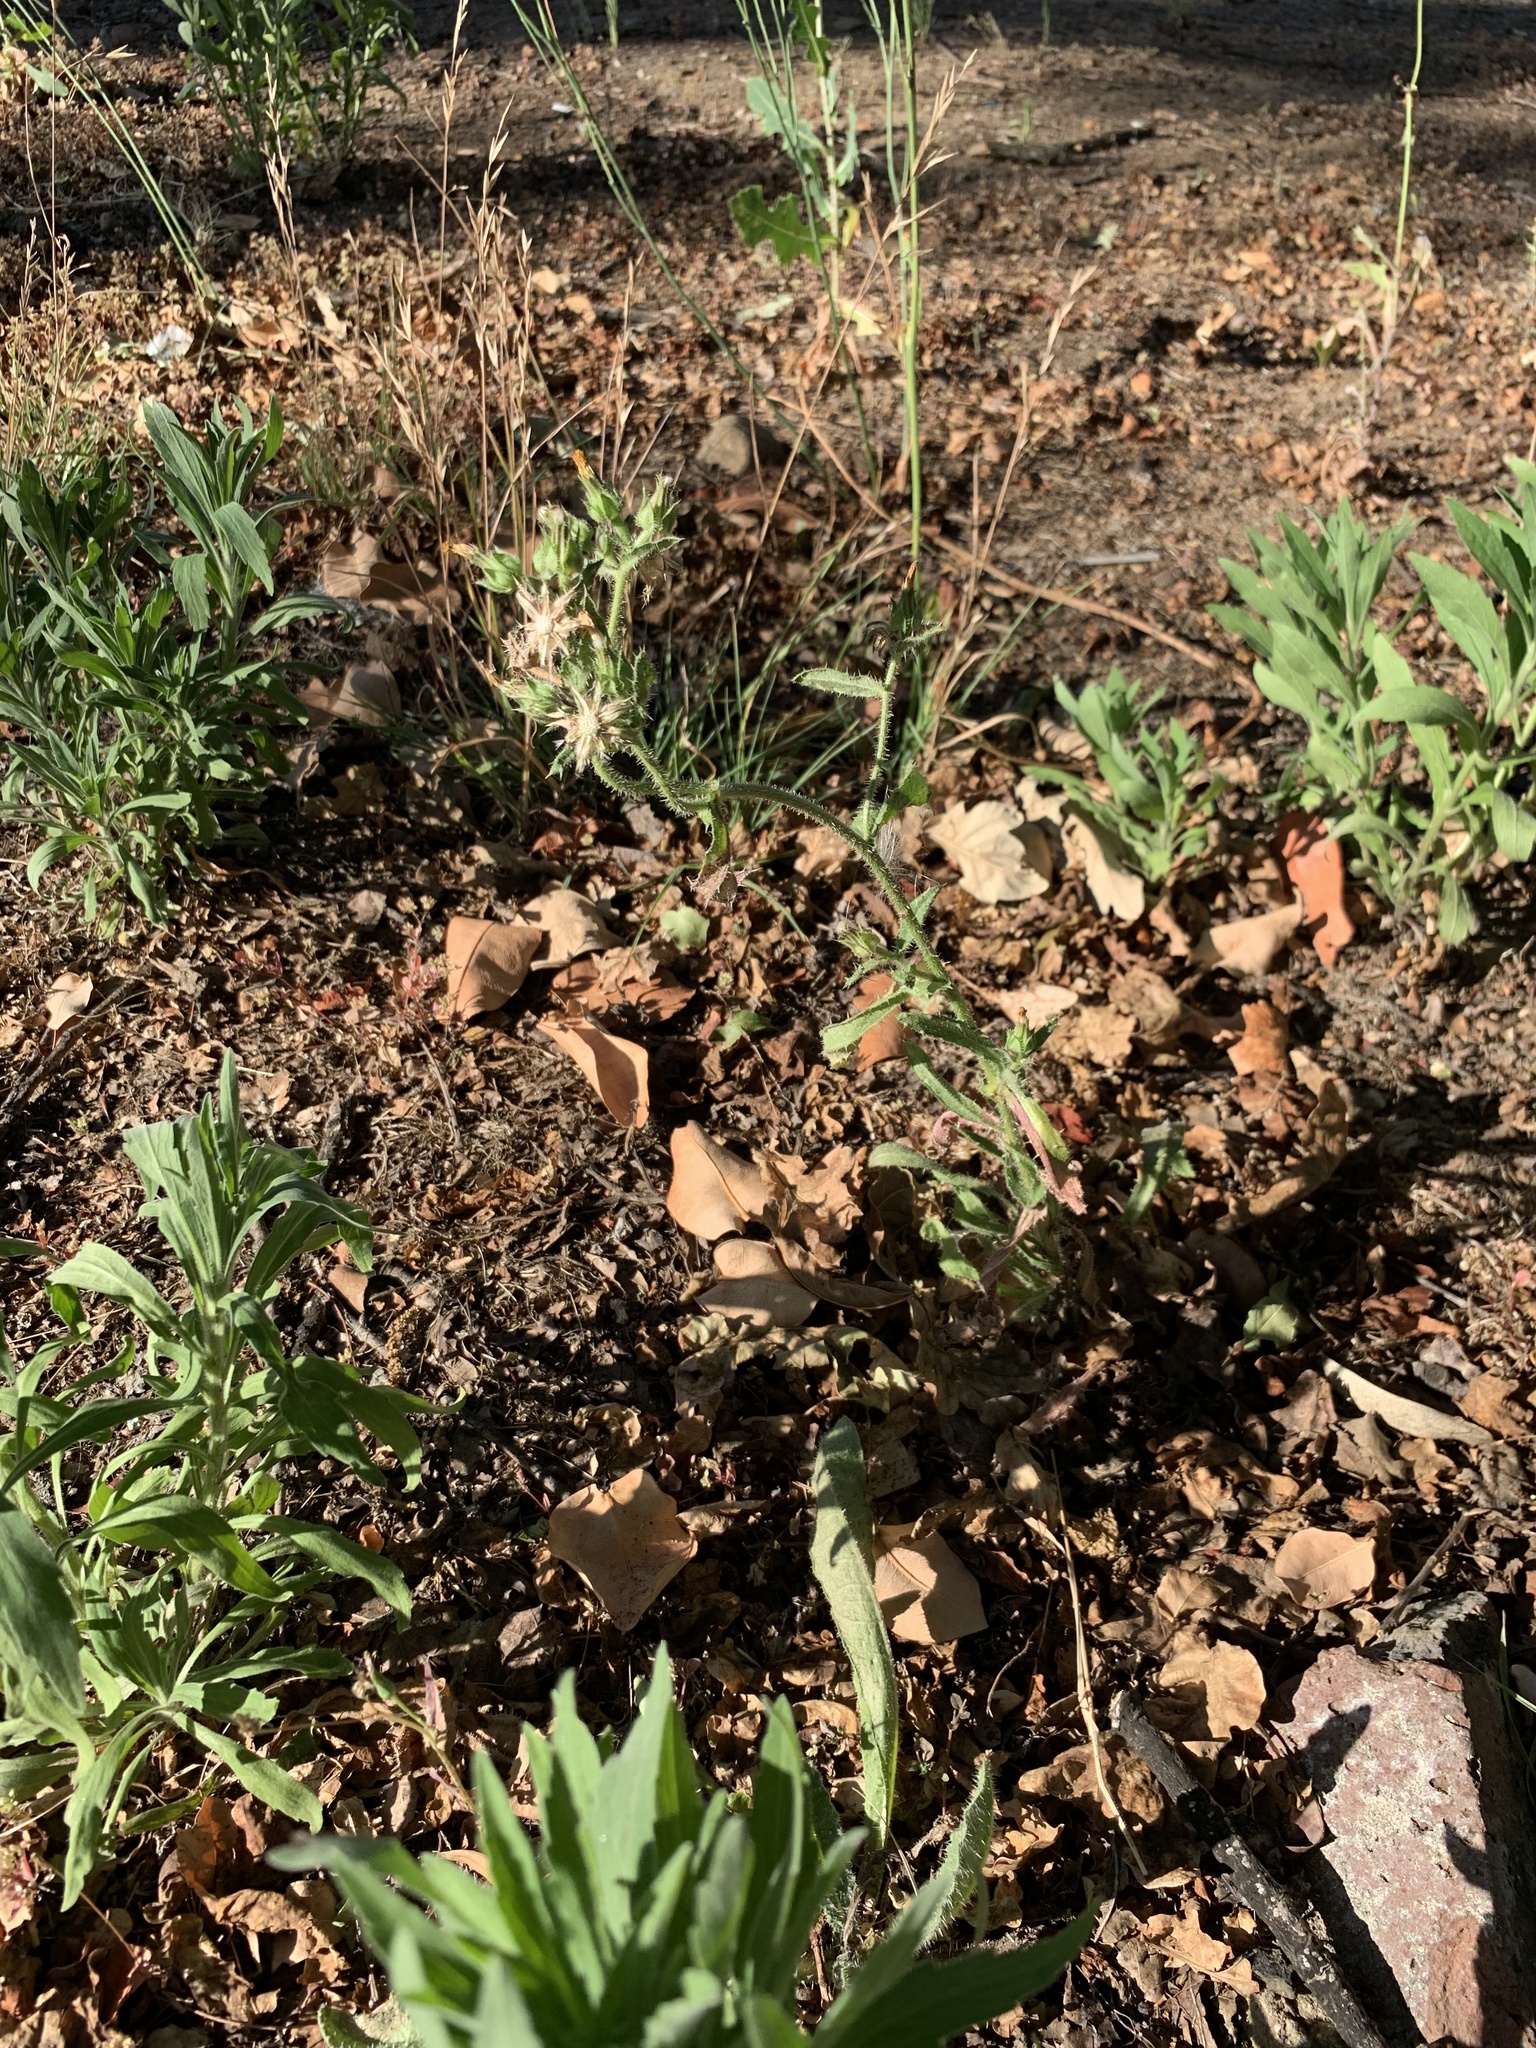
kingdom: Plantae
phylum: Tracheophyta
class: Magnoliopsida
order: Asterales
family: Asteraceae
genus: Helminthotheca
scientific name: Helminthotheca echioides
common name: Ox-tongue
